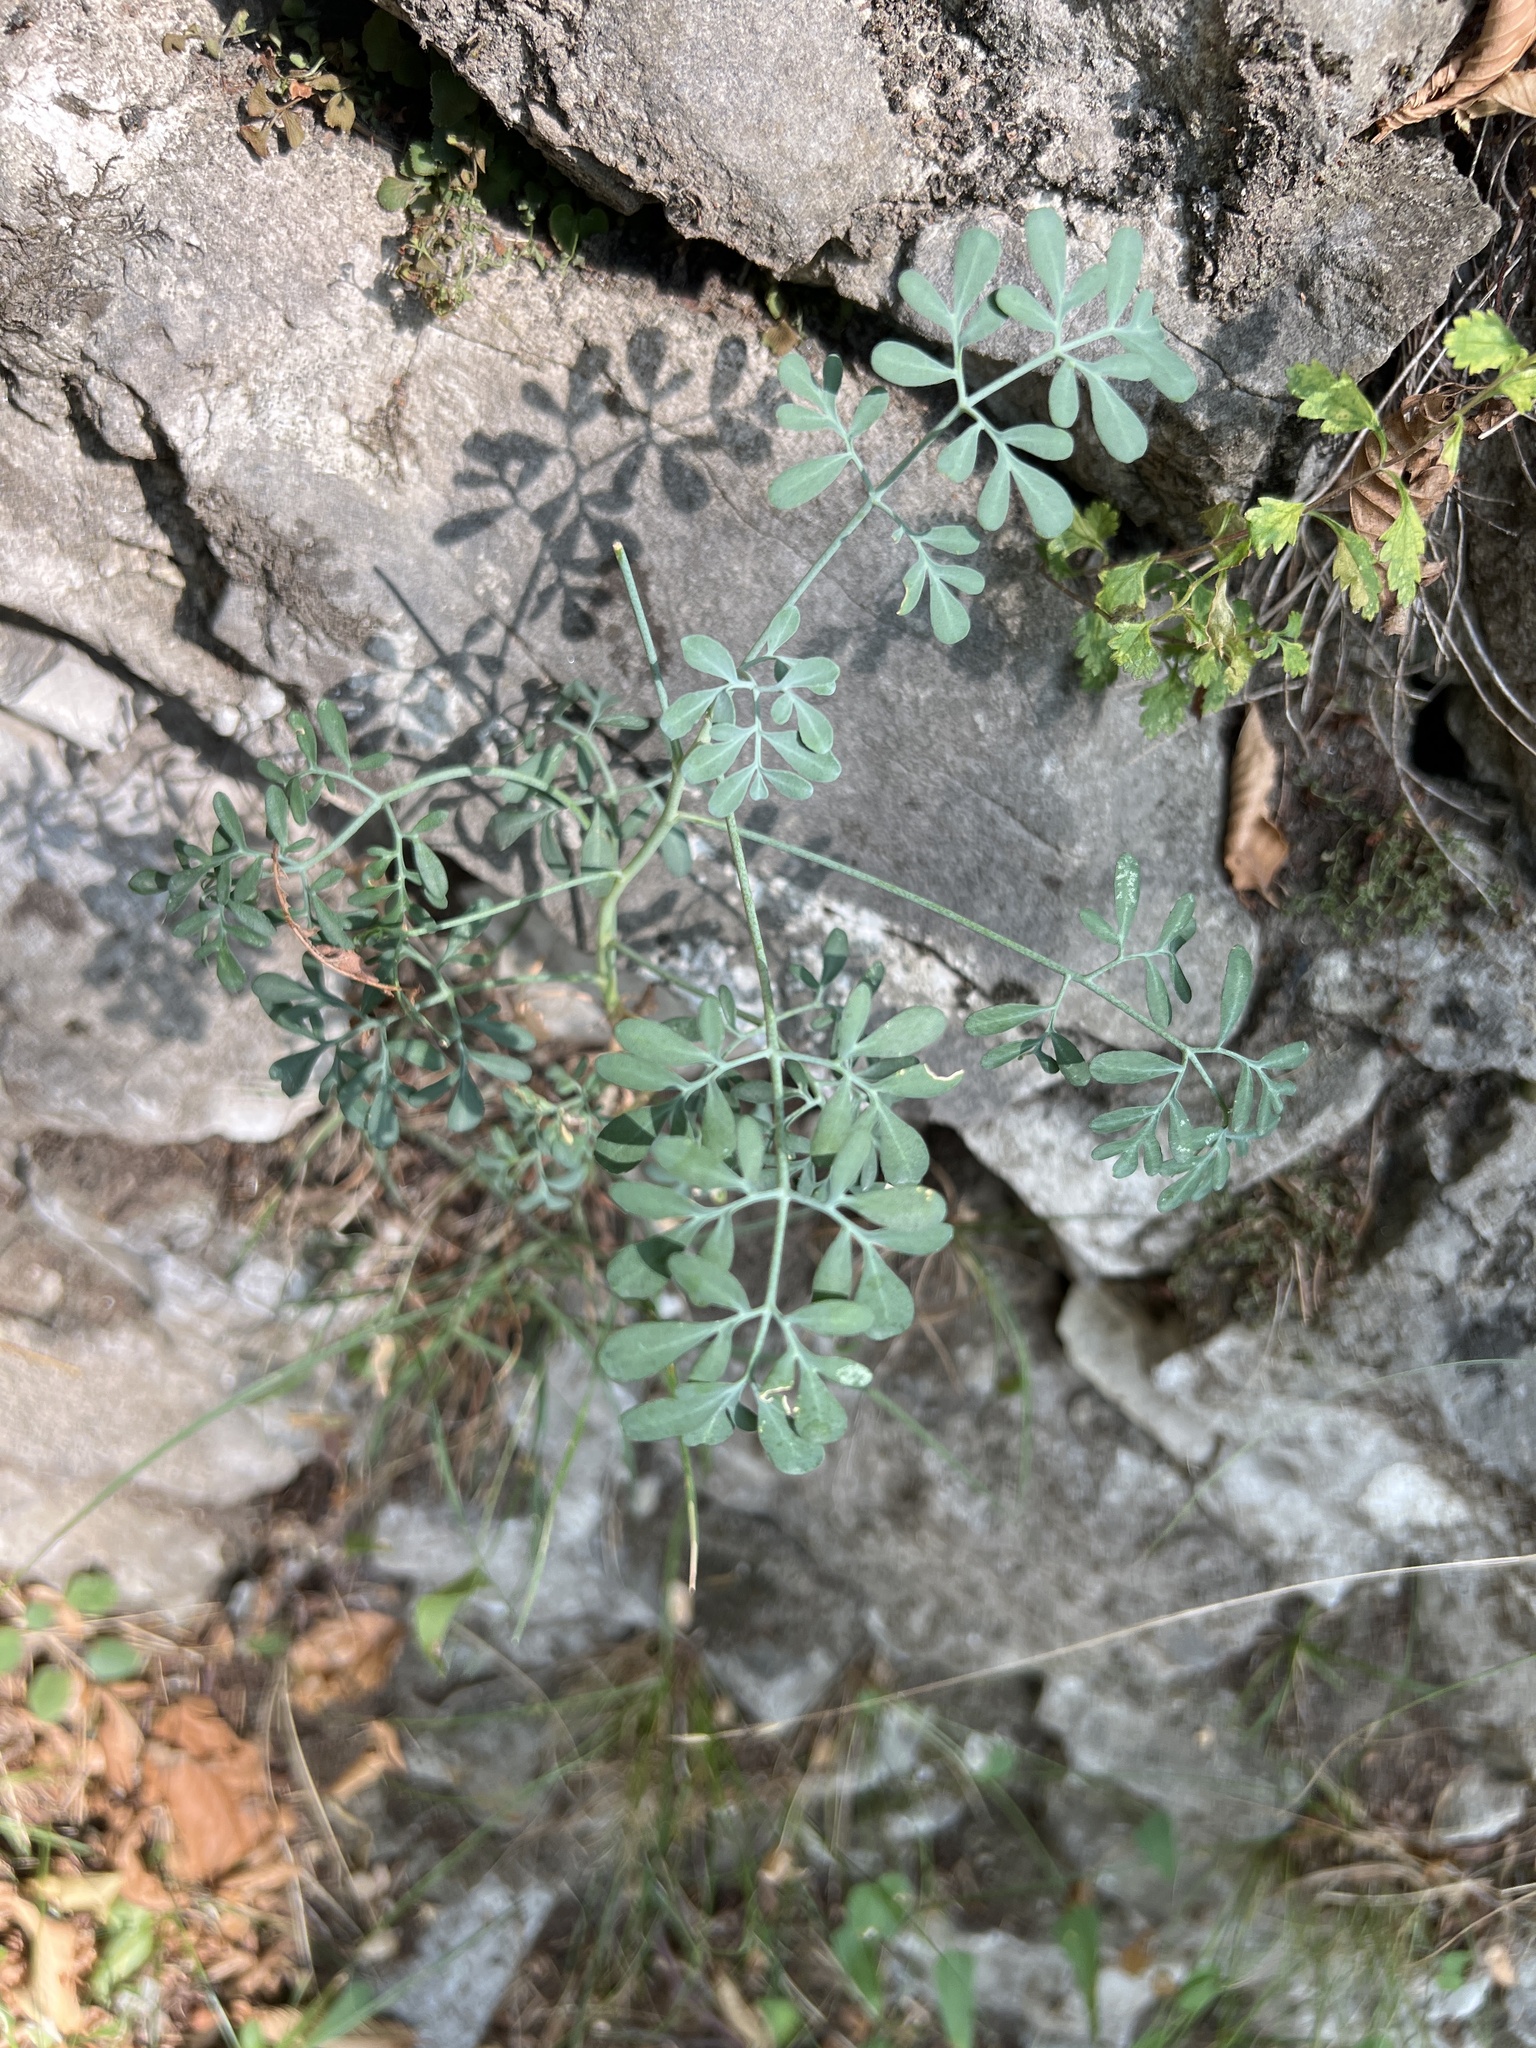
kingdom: Plantae
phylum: Tracheophyta
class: Magnoliopsida
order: Sapindales
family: Rutaceae
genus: Ruta
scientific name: Ruta graveolens
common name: Common rue
